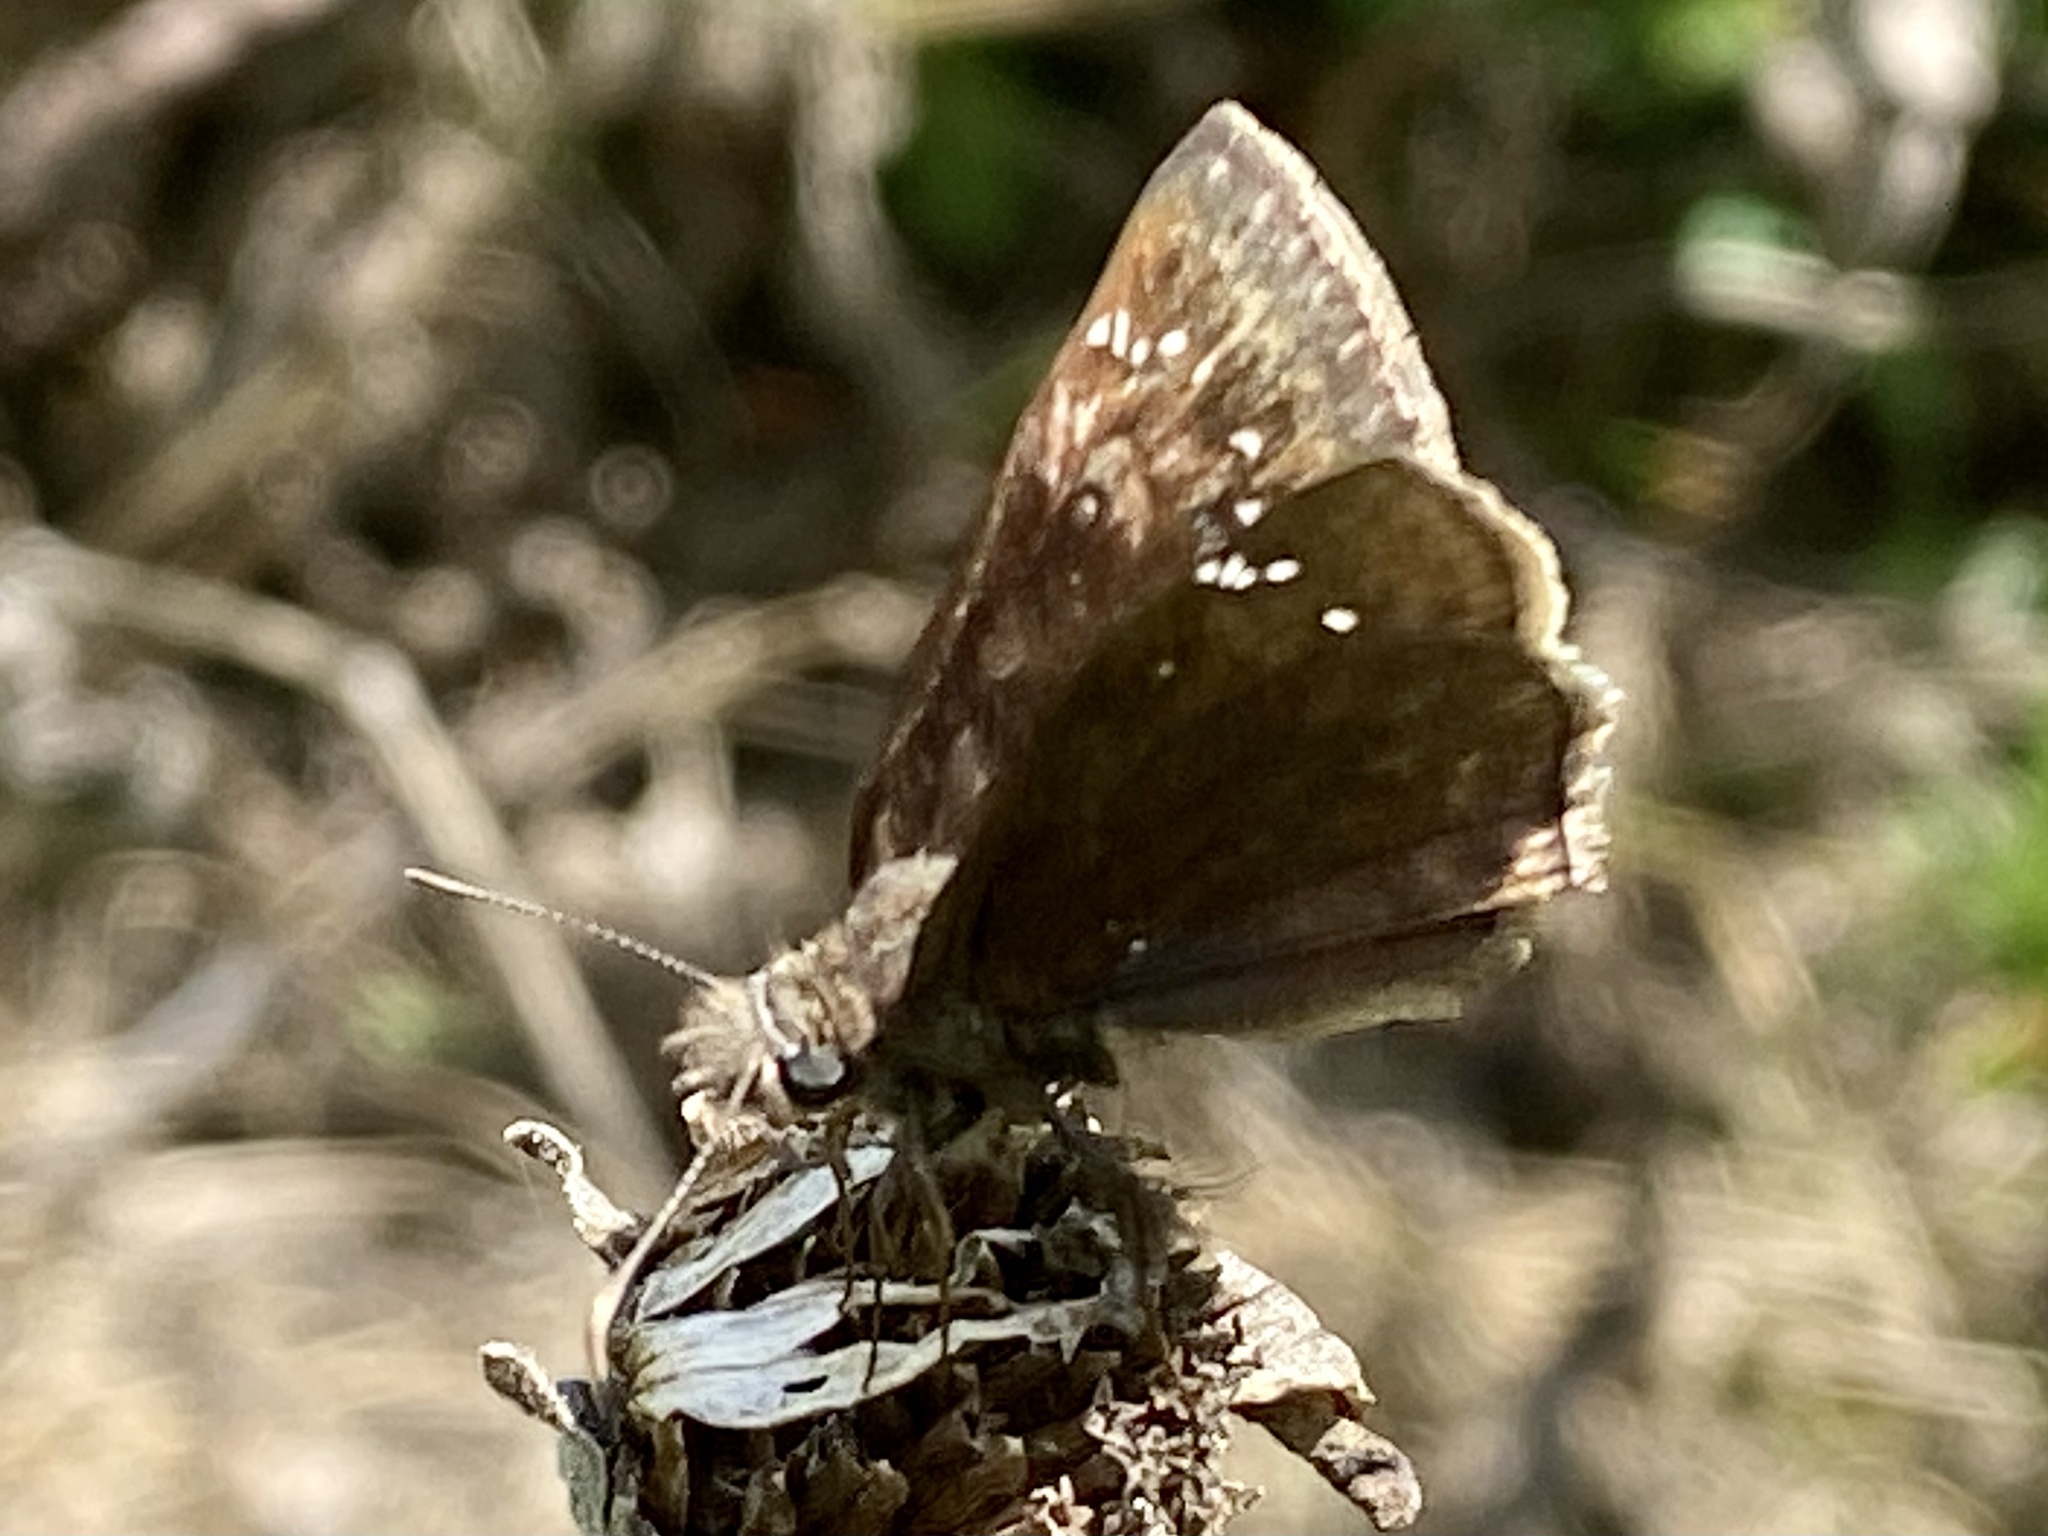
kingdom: Animalia
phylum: Arthropoda
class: Insecta
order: Lepidoptera
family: Hesperiidae
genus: Erynnis
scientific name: Erynnis horatius
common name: Horace's duskywing
